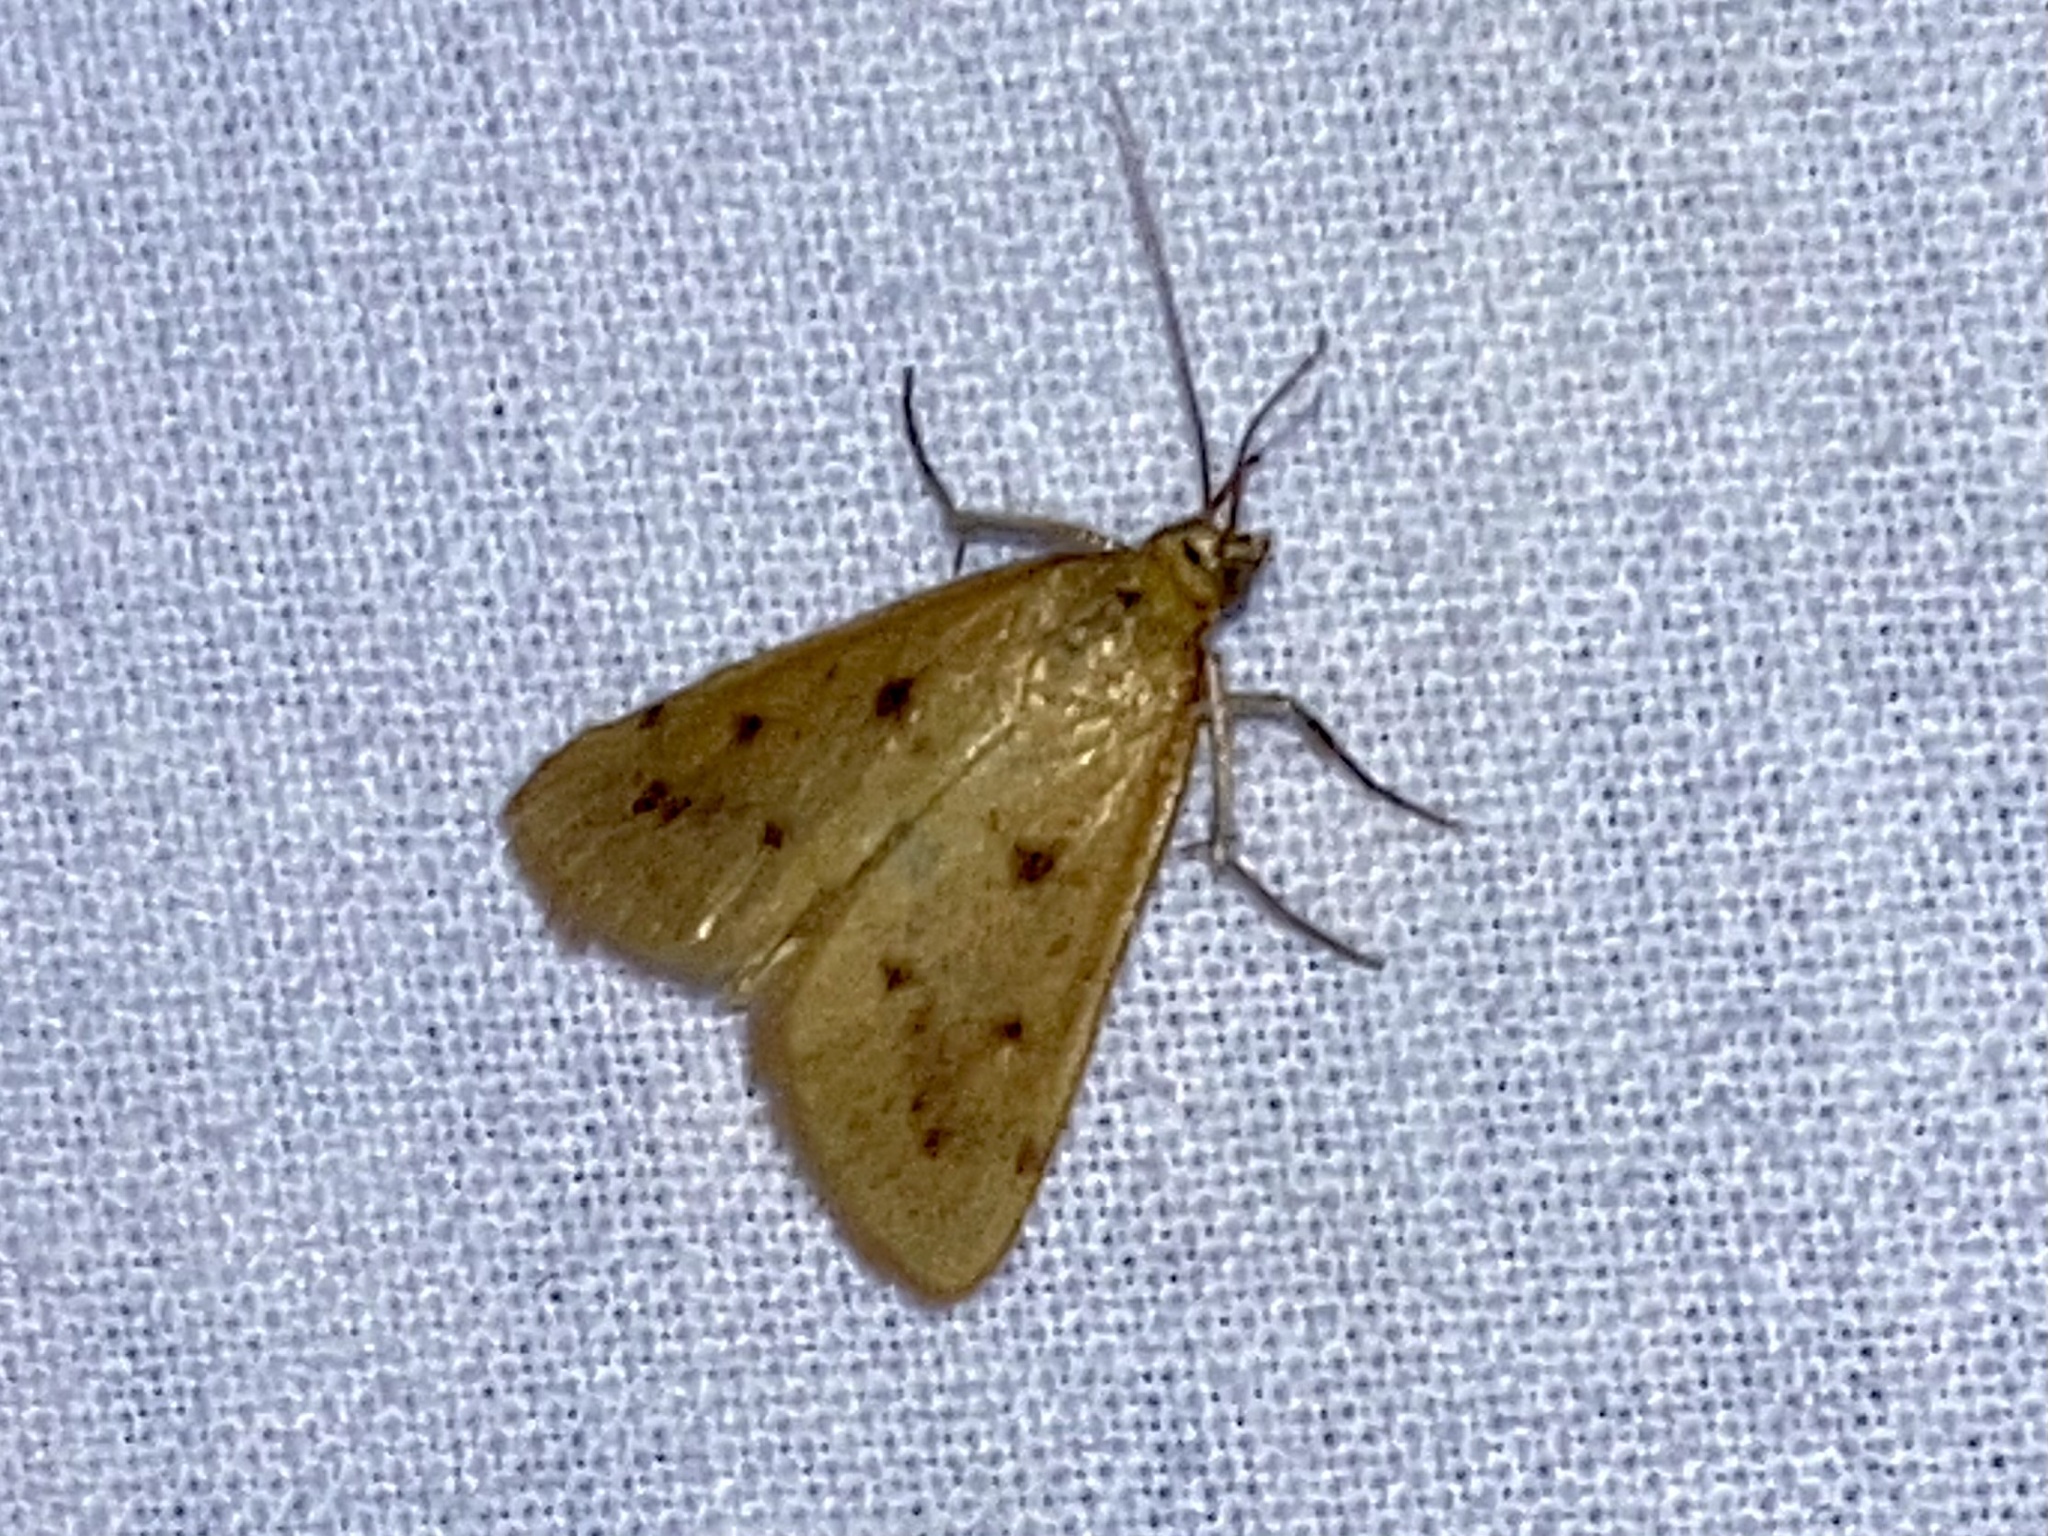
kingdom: Animalia
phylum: Arthropoda
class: Insecta
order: Lepidoptera
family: Crambidae
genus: Achyra
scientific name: Achyra nudalis
